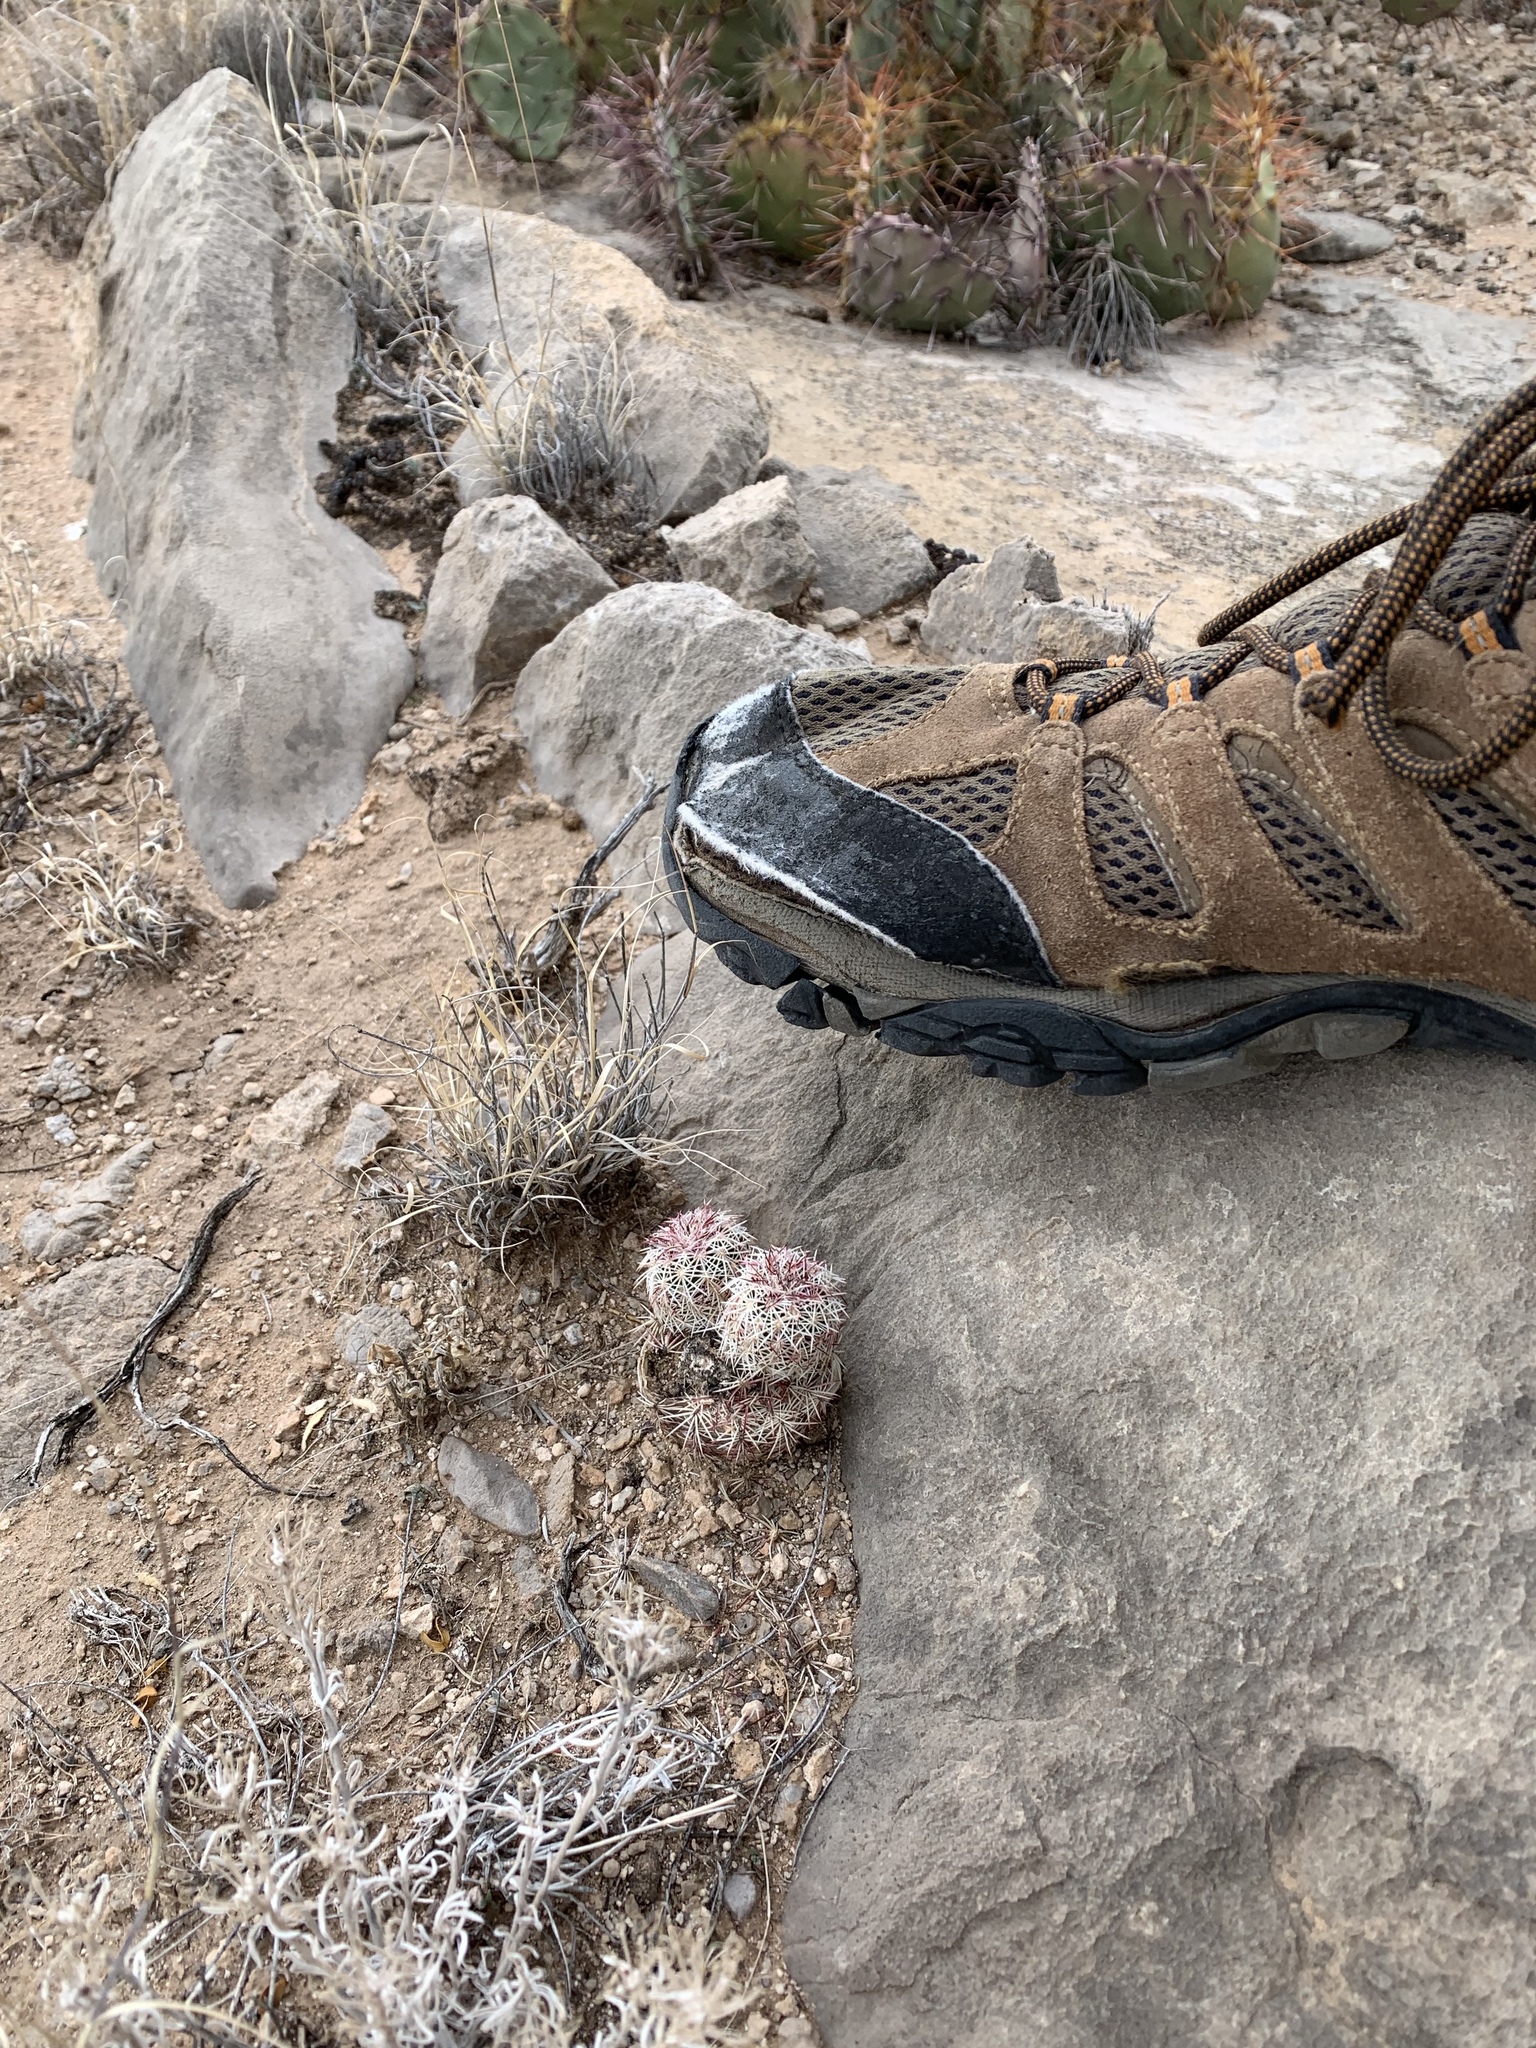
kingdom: Plantae
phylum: Tracheophyta
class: Magnoliopsida
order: Caryophyllales
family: Cactaceae
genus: Echinocereus
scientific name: Echinocereus viridiflorus
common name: Nylon hedgehog cactus
